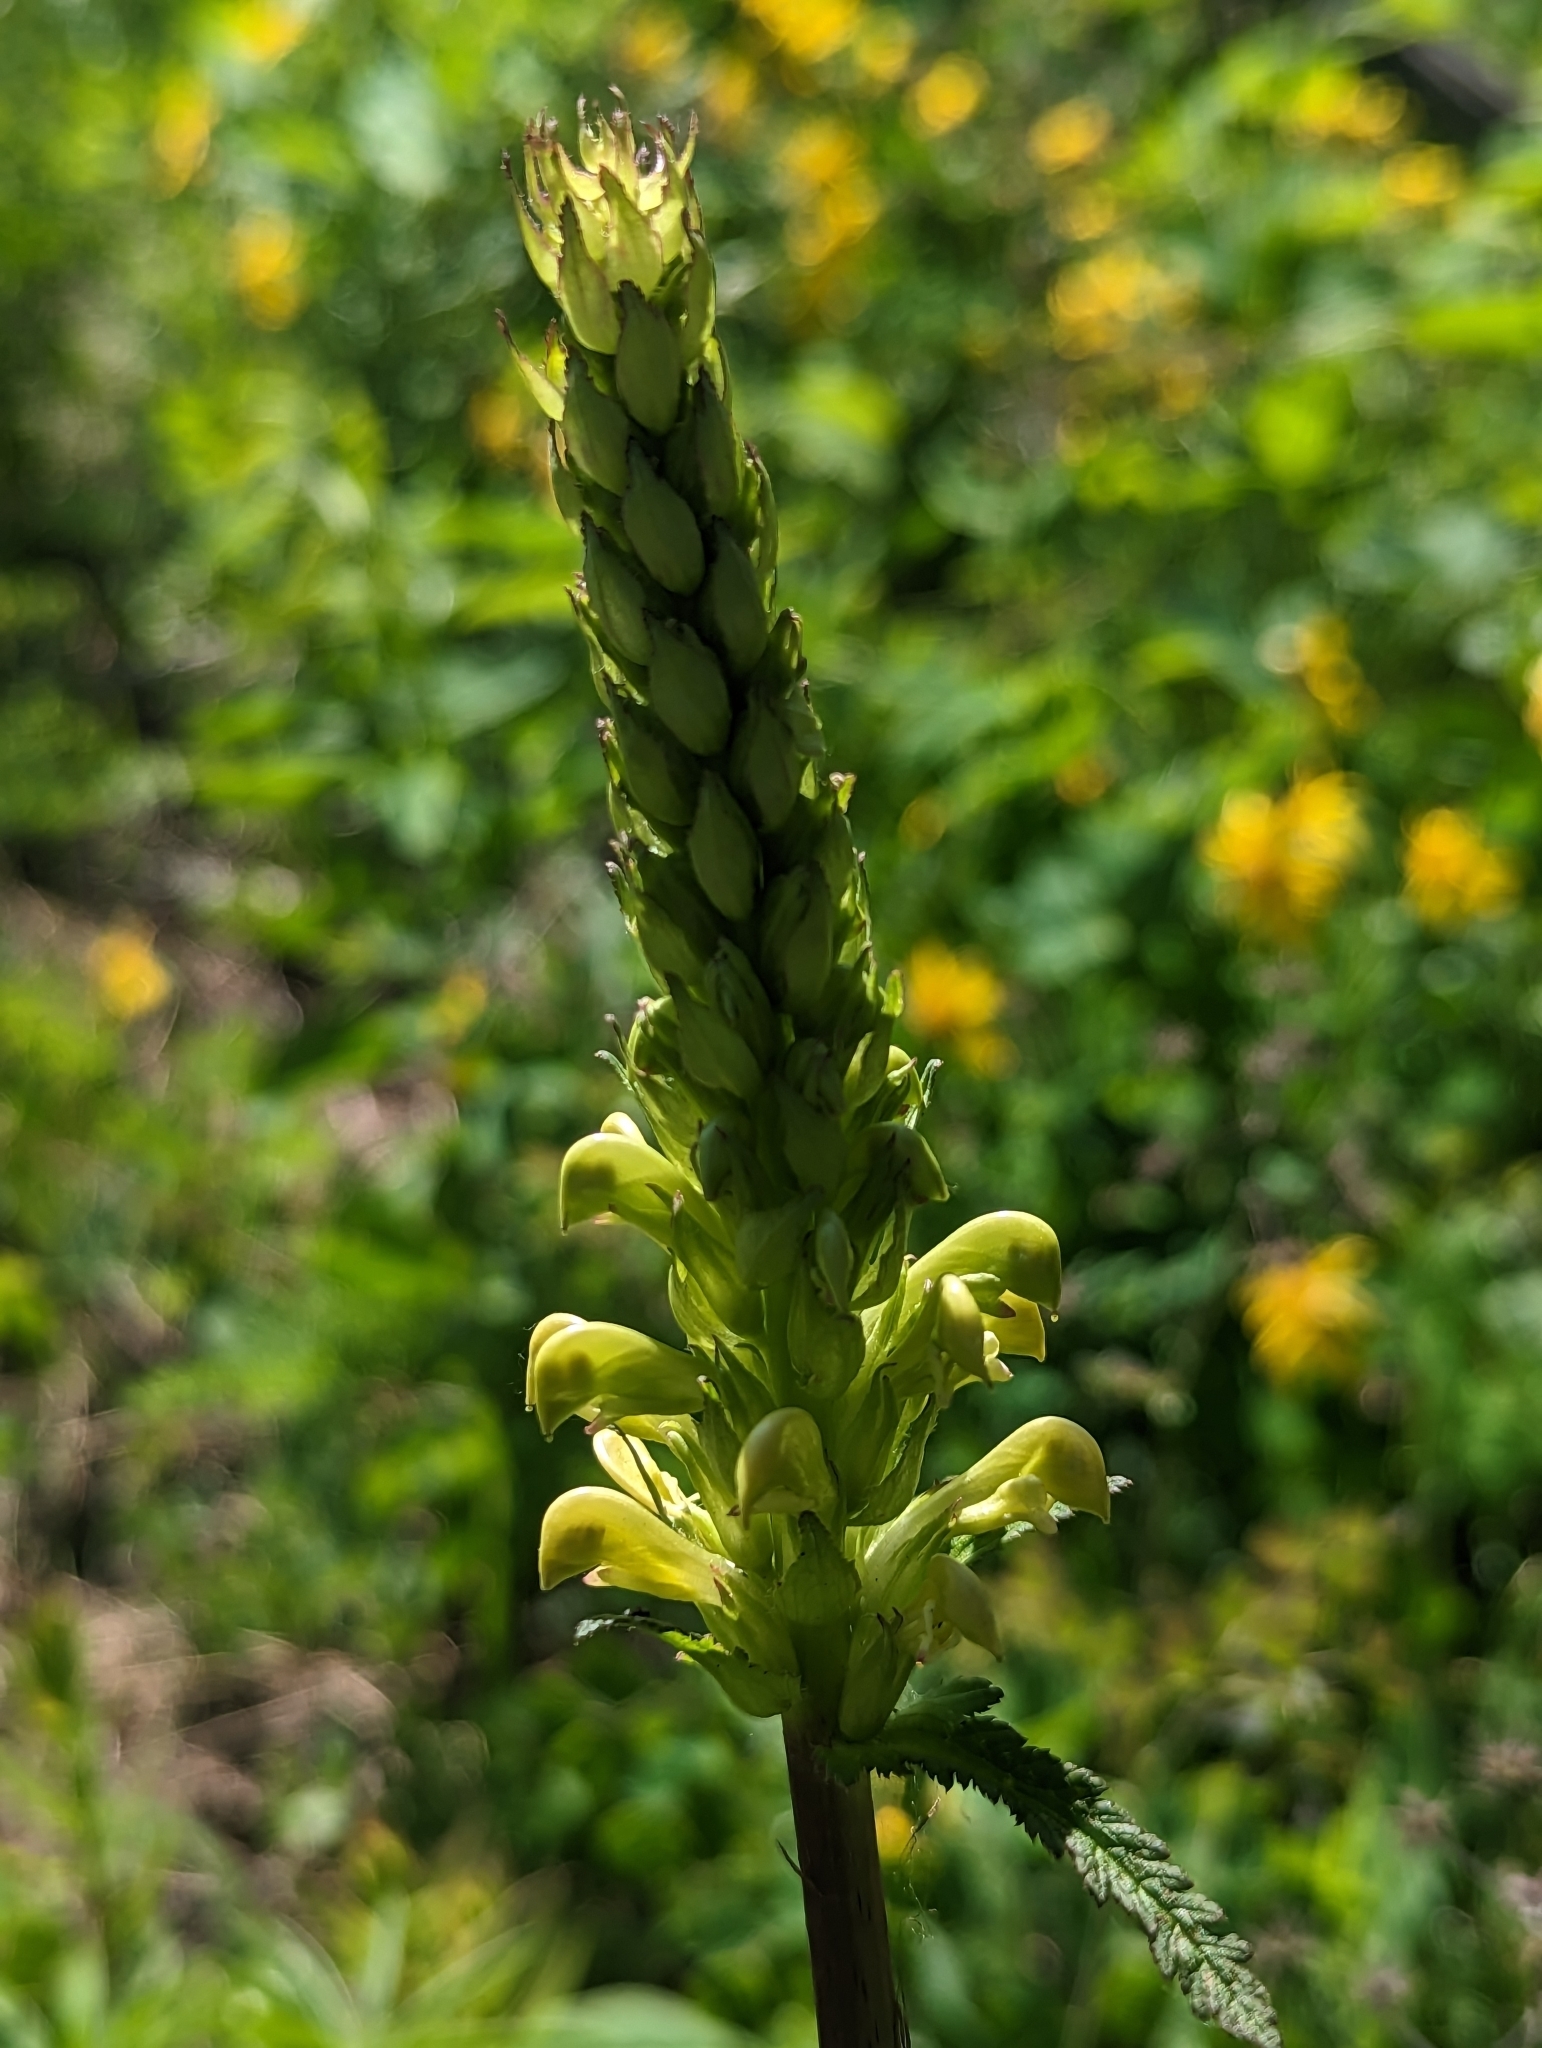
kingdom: Plantae
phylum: Tracheophyta
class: Magnoliopsida
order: Lamiales
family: Orobanchaceae
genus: Pedicularis
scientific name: Pedicularis bracteosa
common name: Bracted lousewort
